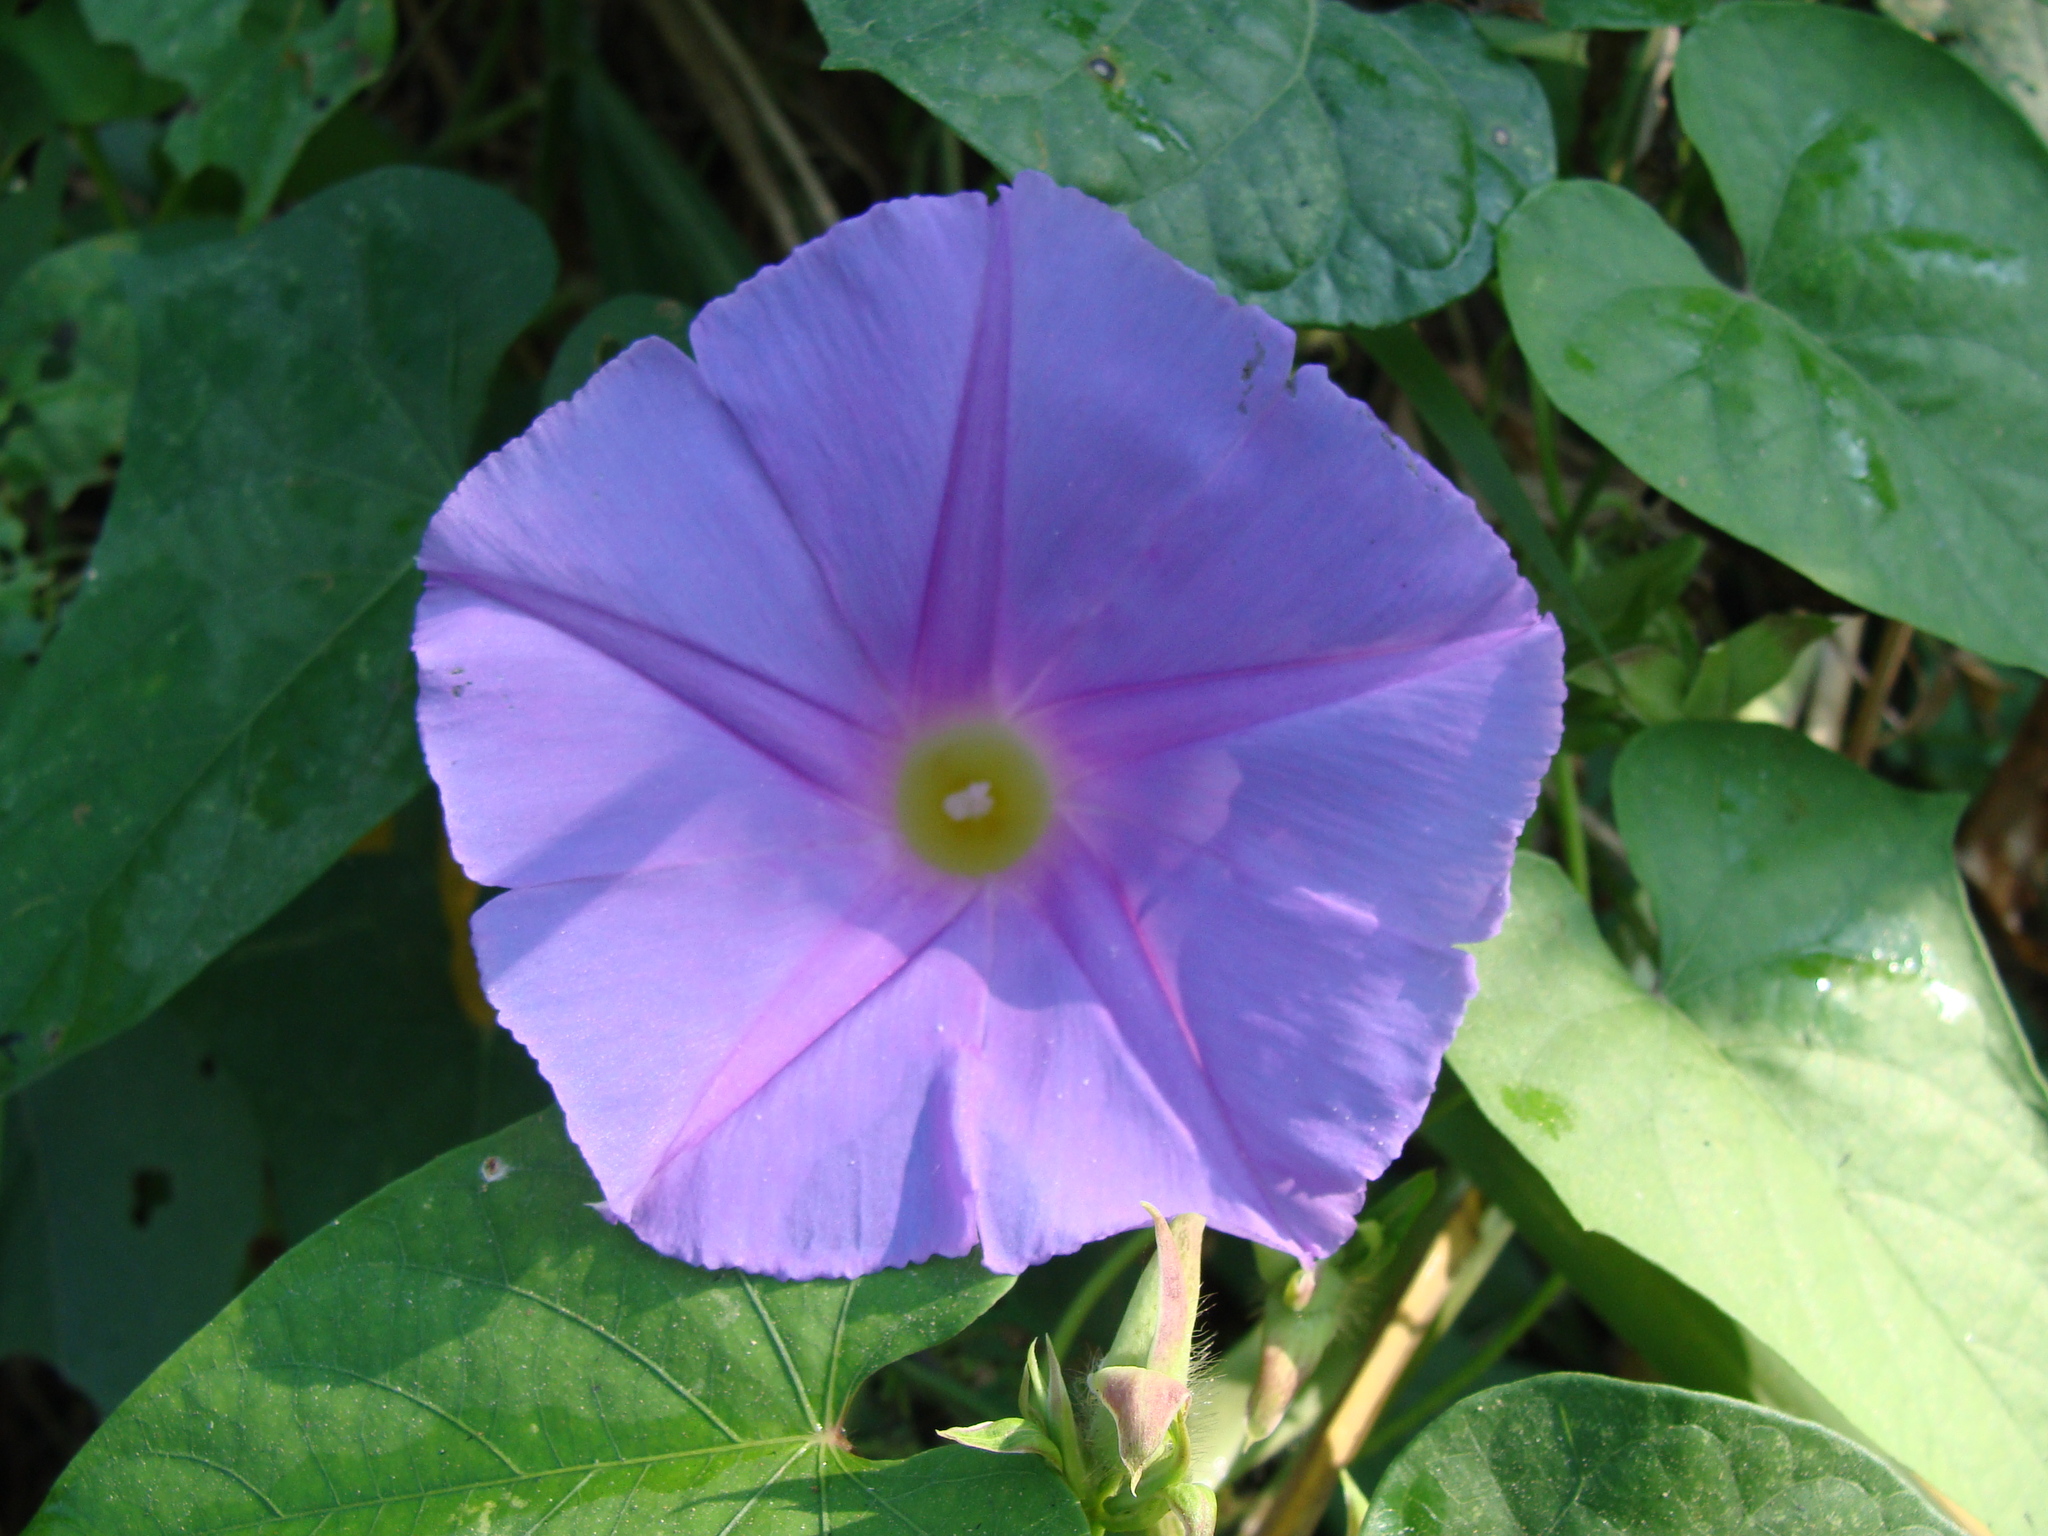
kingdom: Plantae
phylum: Tracheophyta
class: Magnoliopsida
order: Solanales
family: Convolvulaceae
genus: Ipomoea
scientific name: Ipomoea mitchelliae
